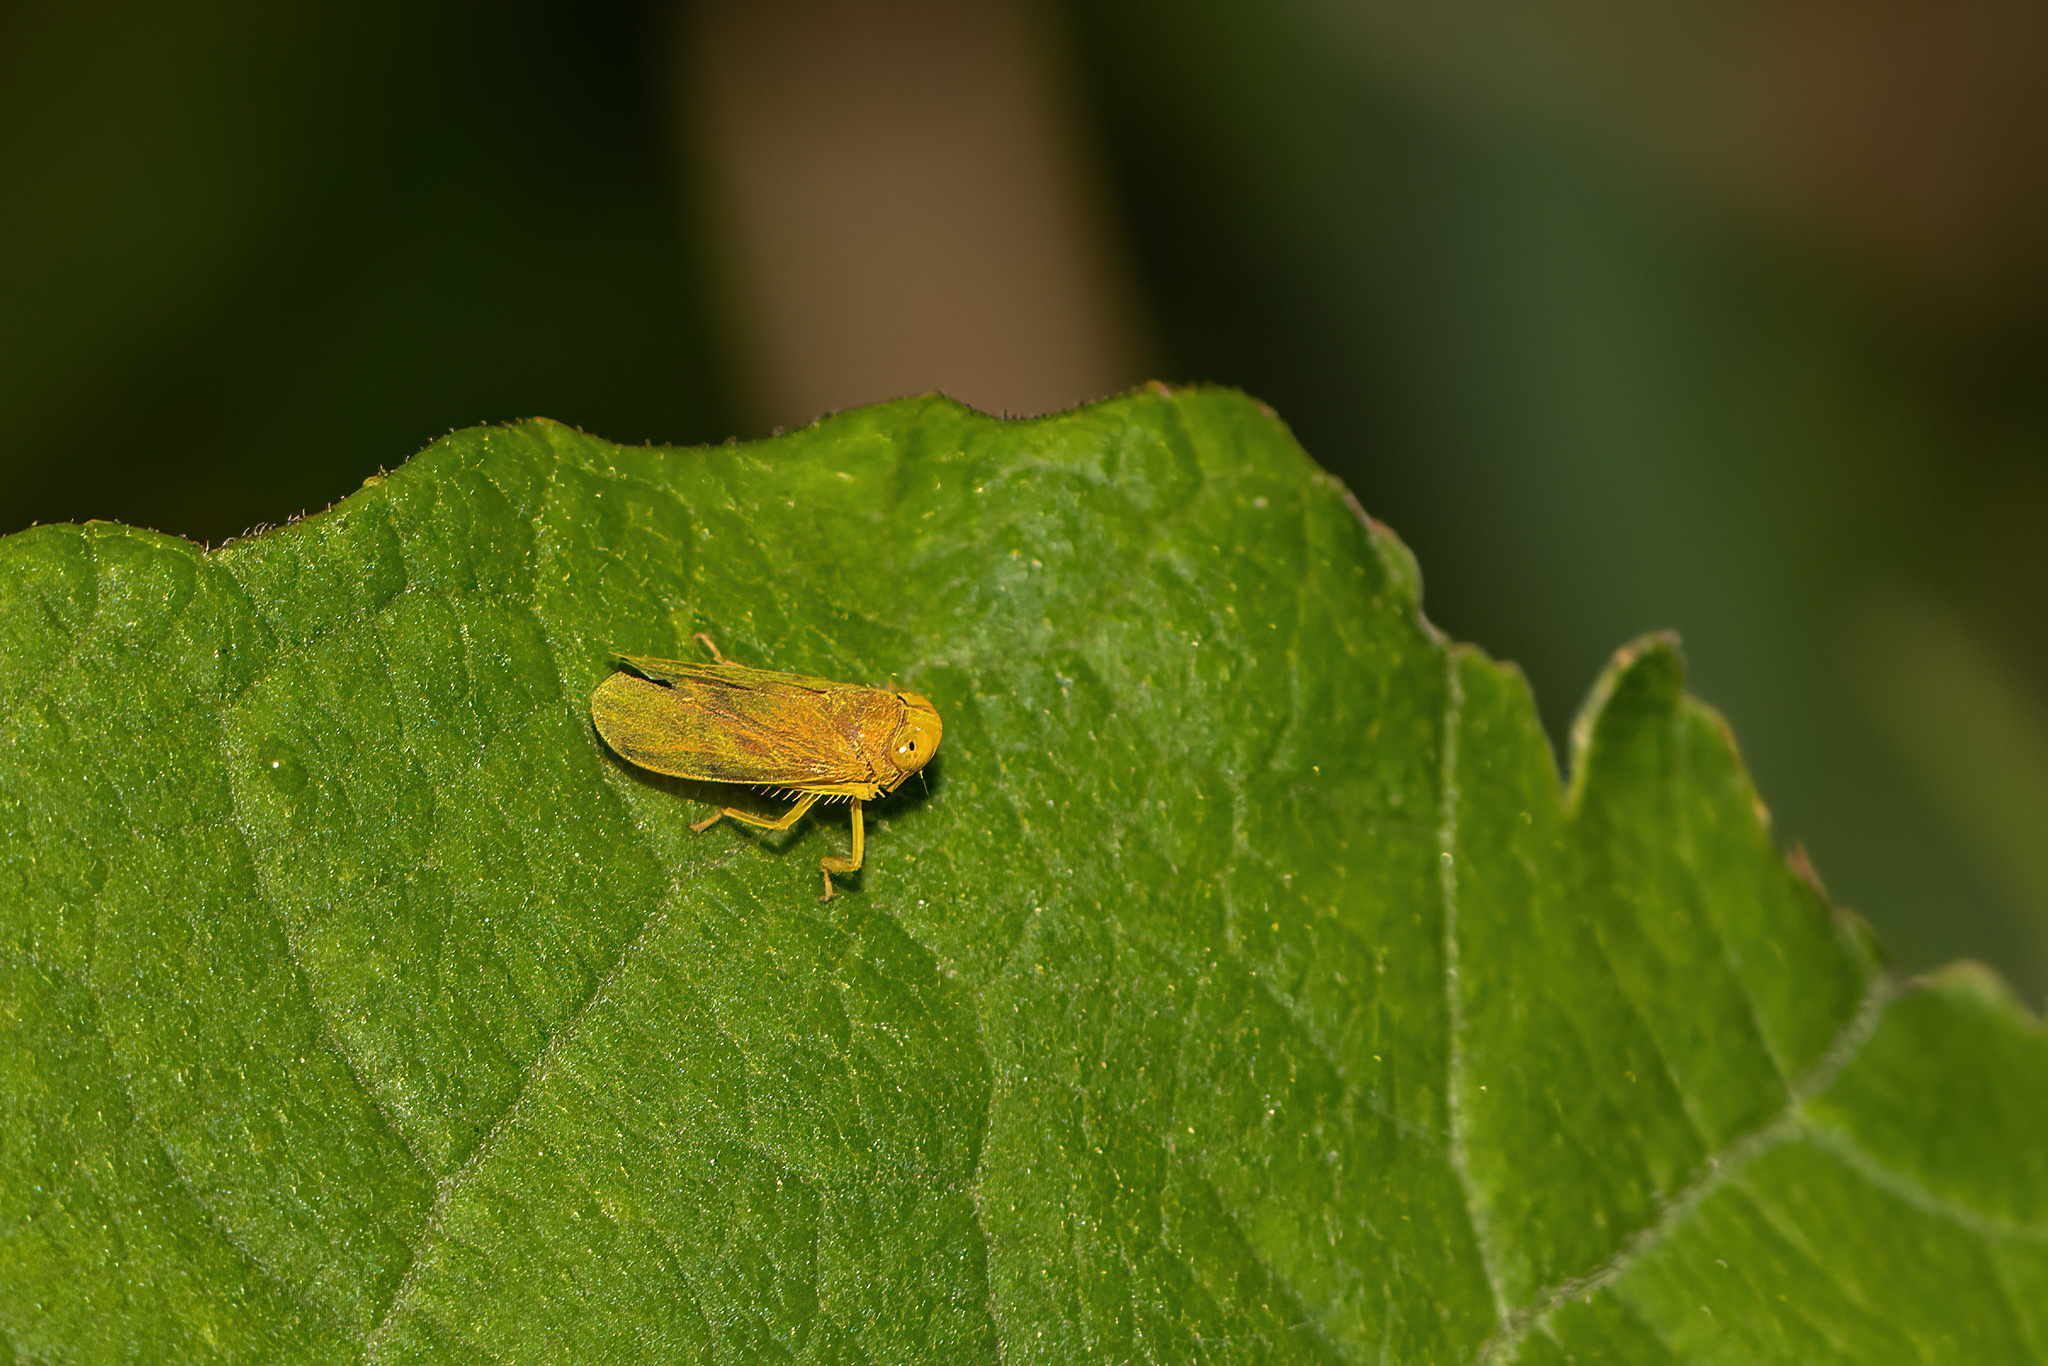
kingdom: Animalia
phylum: Arthropoda
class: Insecta
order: Hemiptera
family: Cicadellidae
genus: Jikradia
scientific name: Jikradia olitoria
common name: Coppery leafhopper
